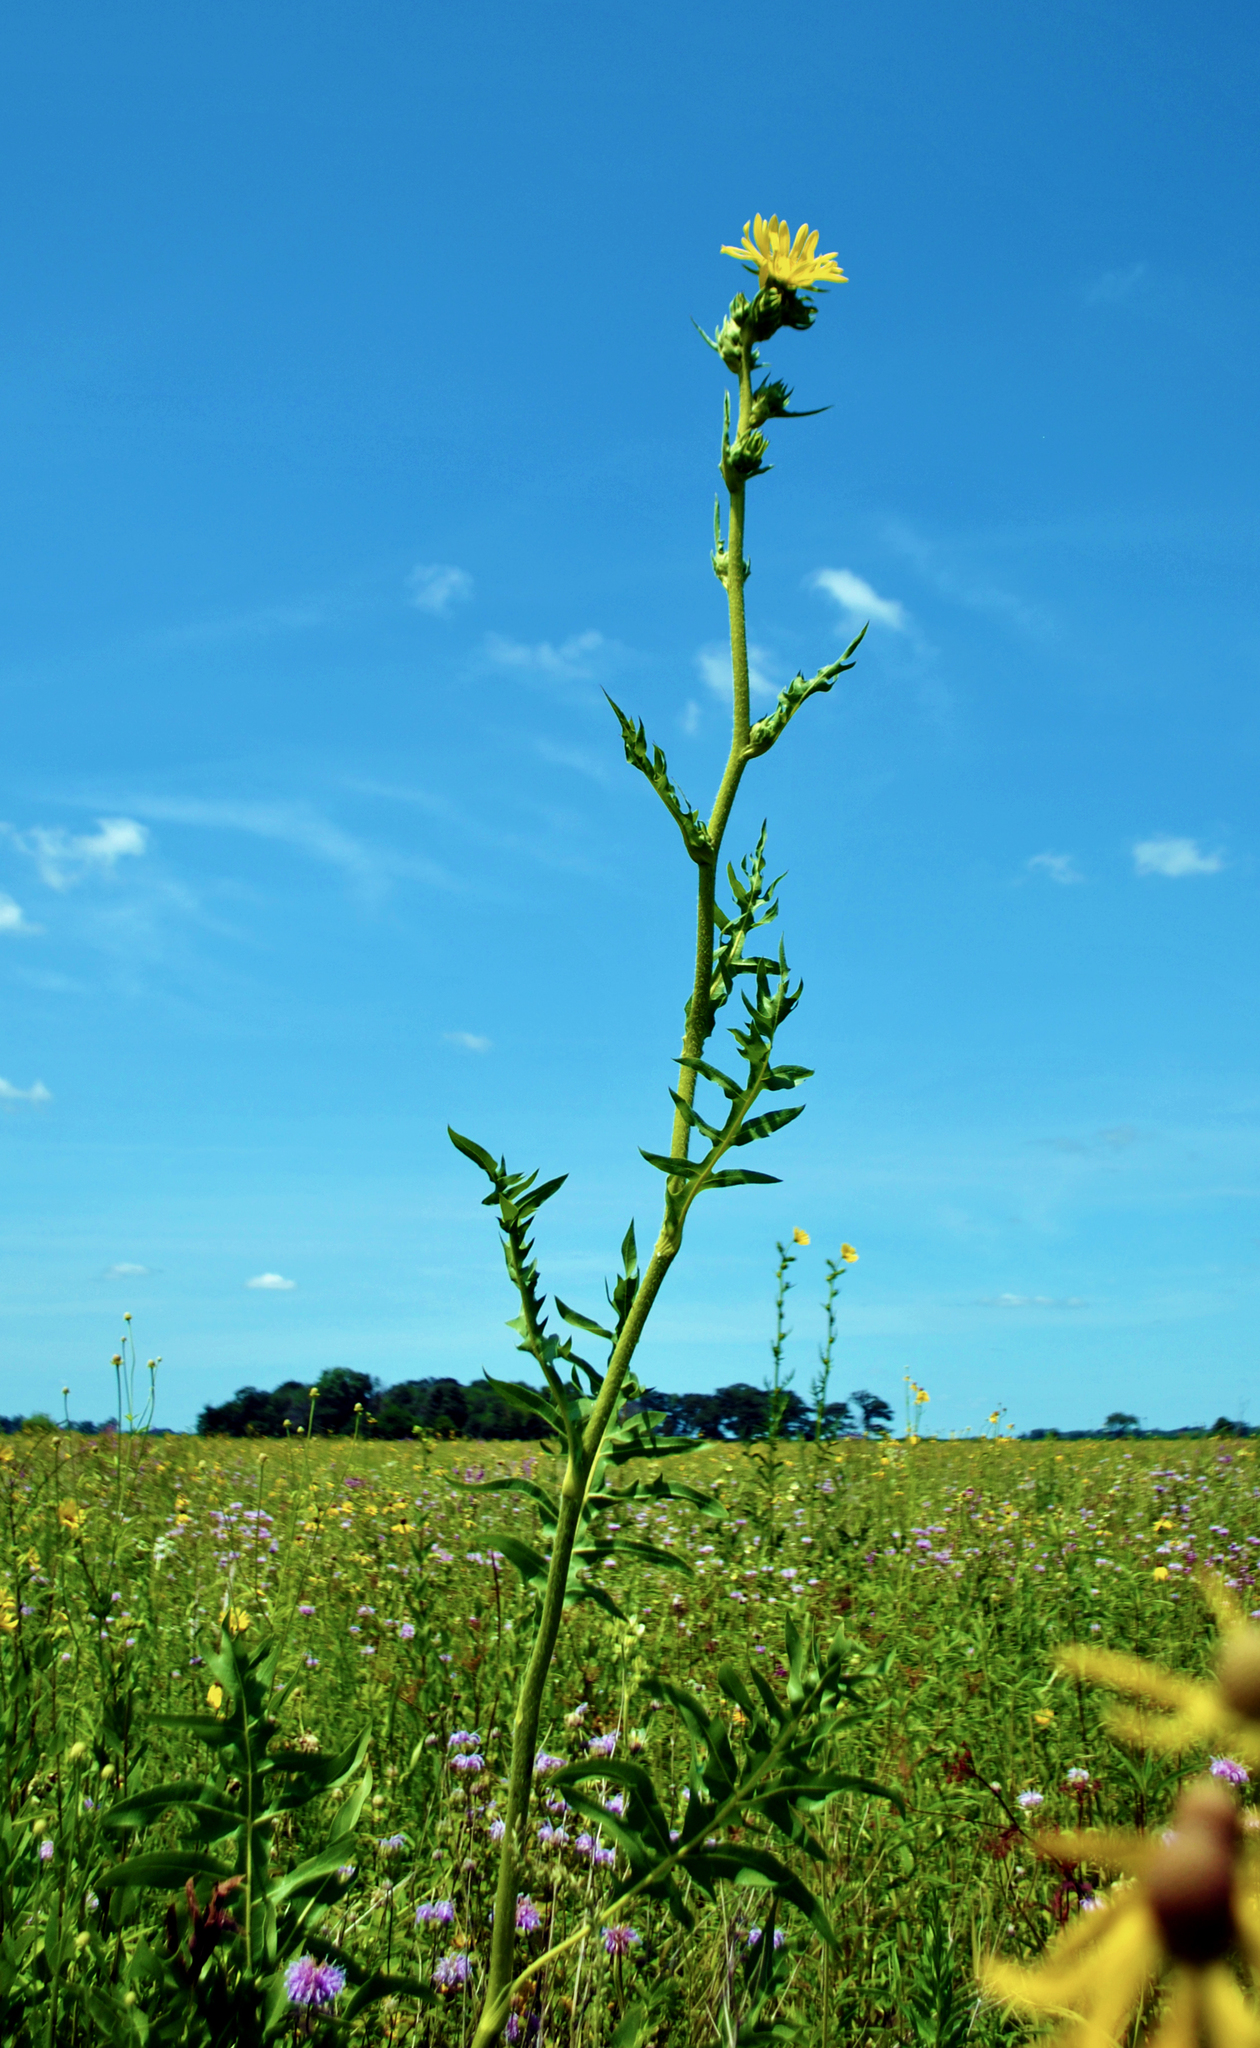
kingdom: Plantae
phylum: Tracheophyta
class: Magnoliopsida
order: Asterales
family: Asteraceae
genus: Silphium
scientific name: Silphium laciniatum
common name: Polarplant
